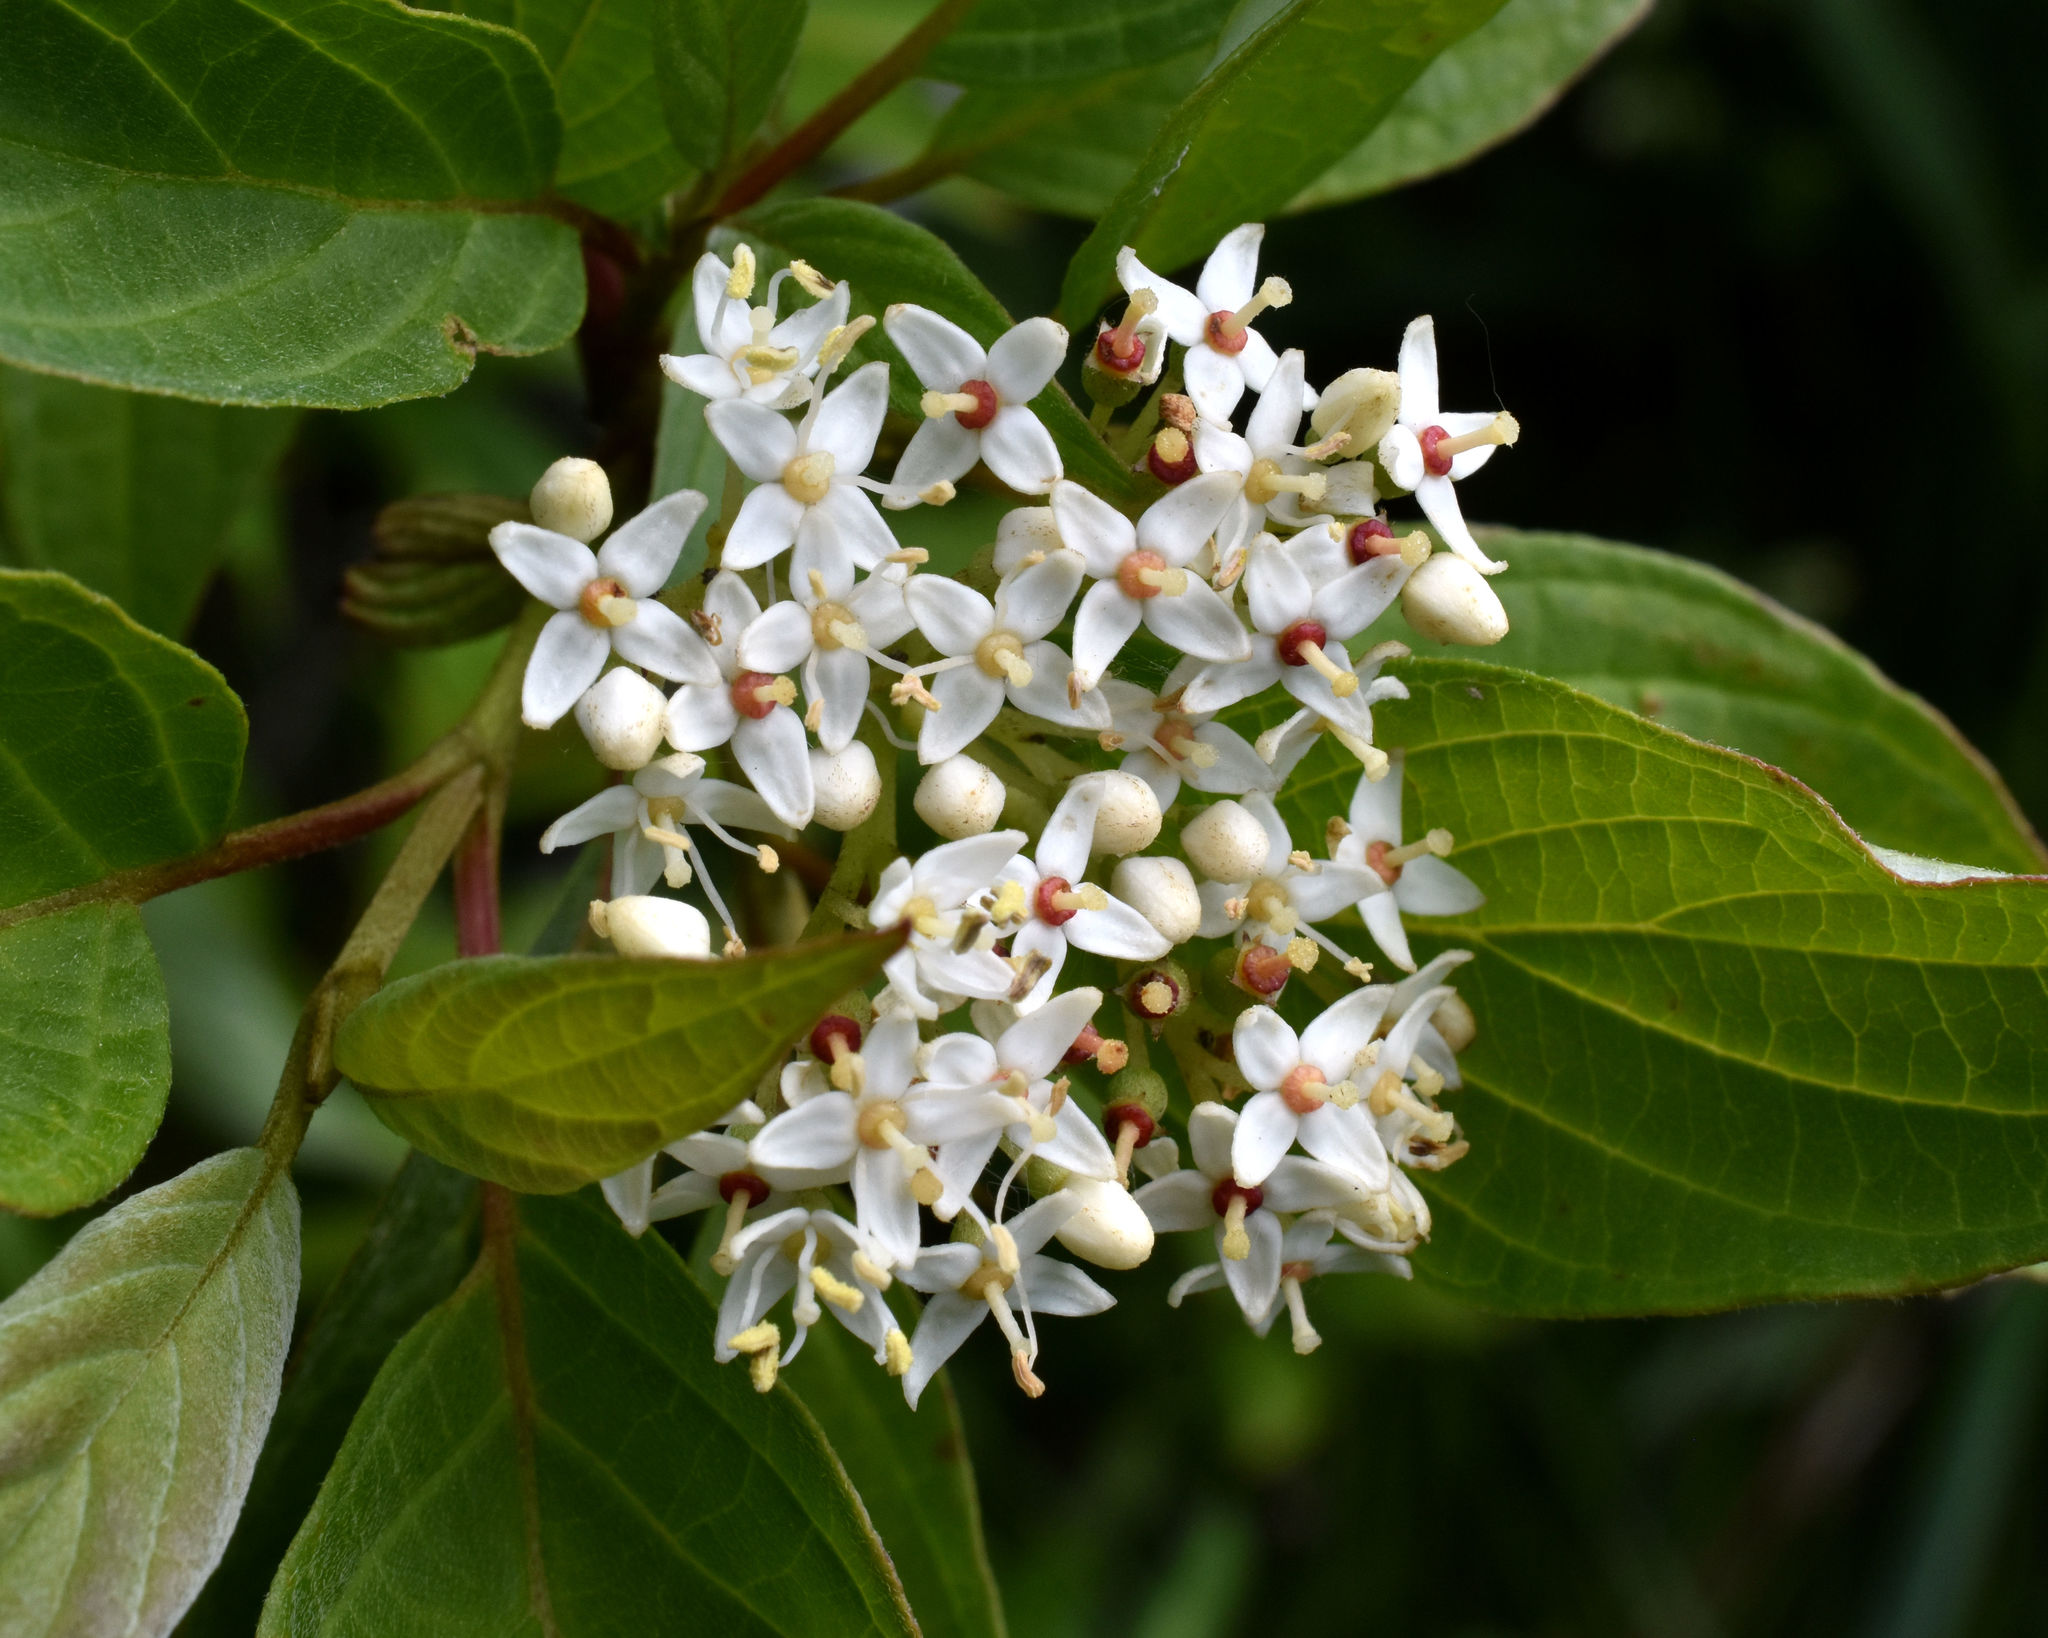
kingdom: Plantae
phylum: Tracheophyta
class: Magnoliopsida
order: Cornales
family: Cornaceae
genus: Cornus
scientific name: Cornus sericea
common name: Red-osier dogwood
